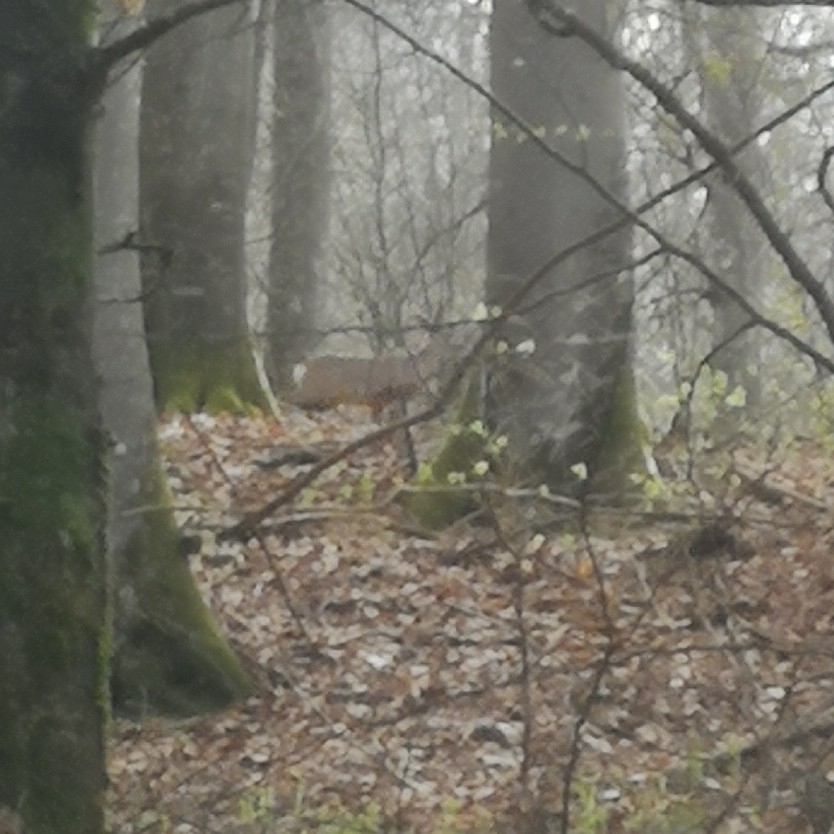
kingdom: Animalia
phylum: Chordata
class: Mammalia
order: Artiodactyla
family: Cervidae
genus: Capreolus
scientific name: Capreolus capreolus
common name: Western roe deer
